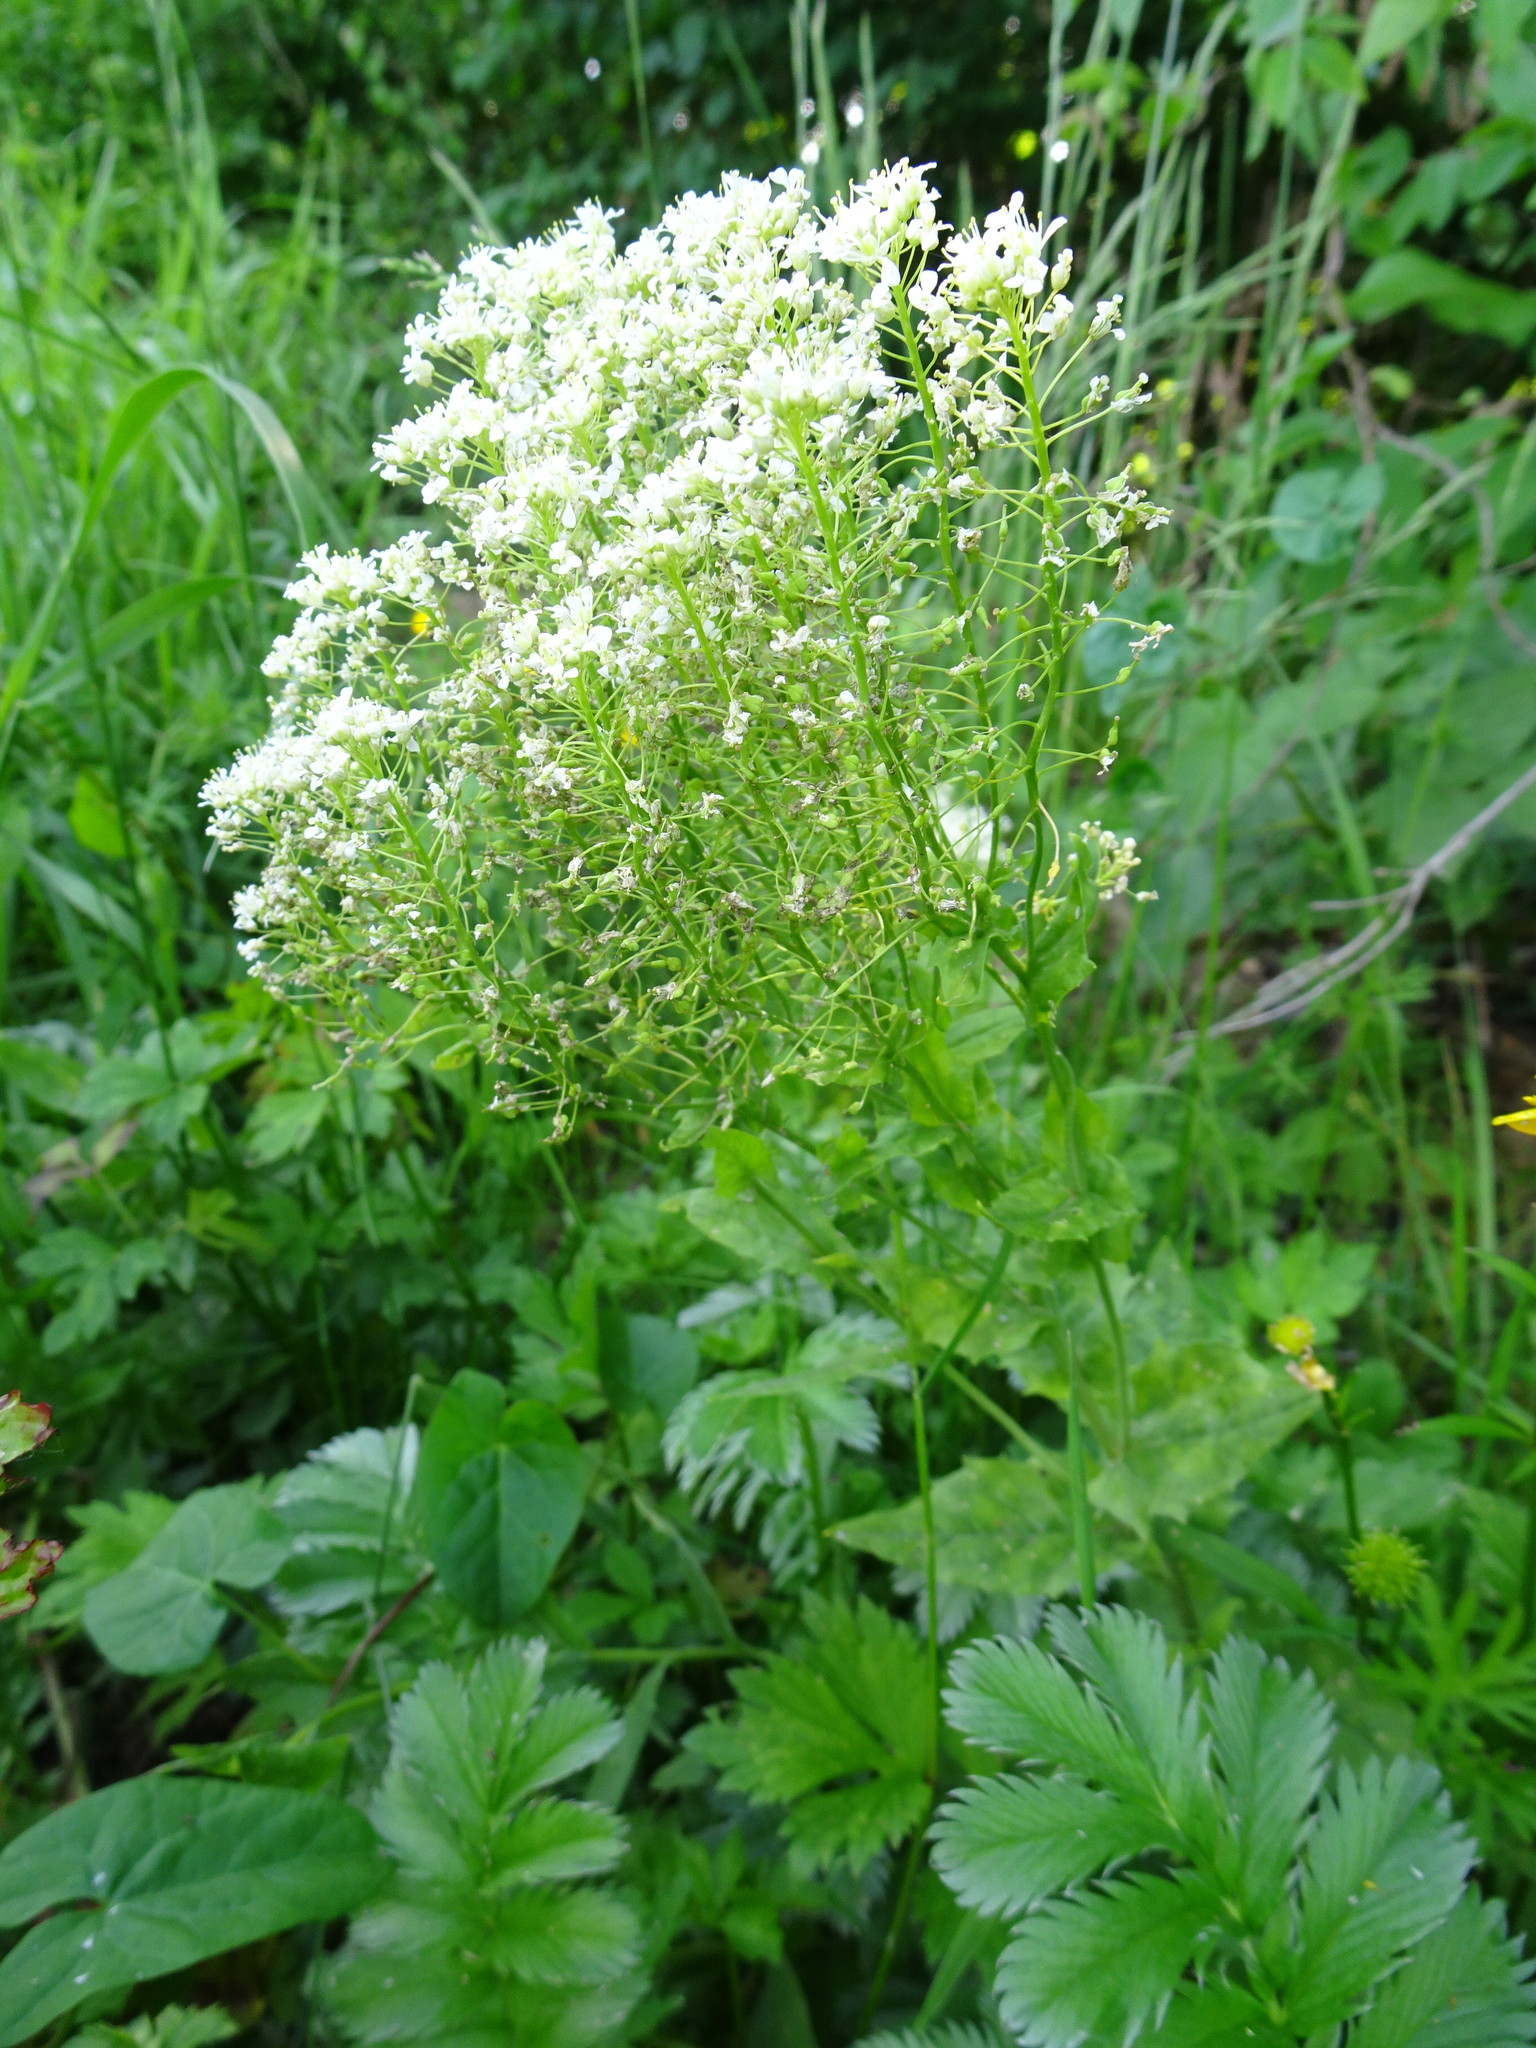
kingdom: Plantae
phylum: Tracheophyta
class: Magnoliopsida
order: Brassicales
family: Brassicaceae
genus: Lepidium
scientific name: Lepidium draba
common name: Hoary cress
